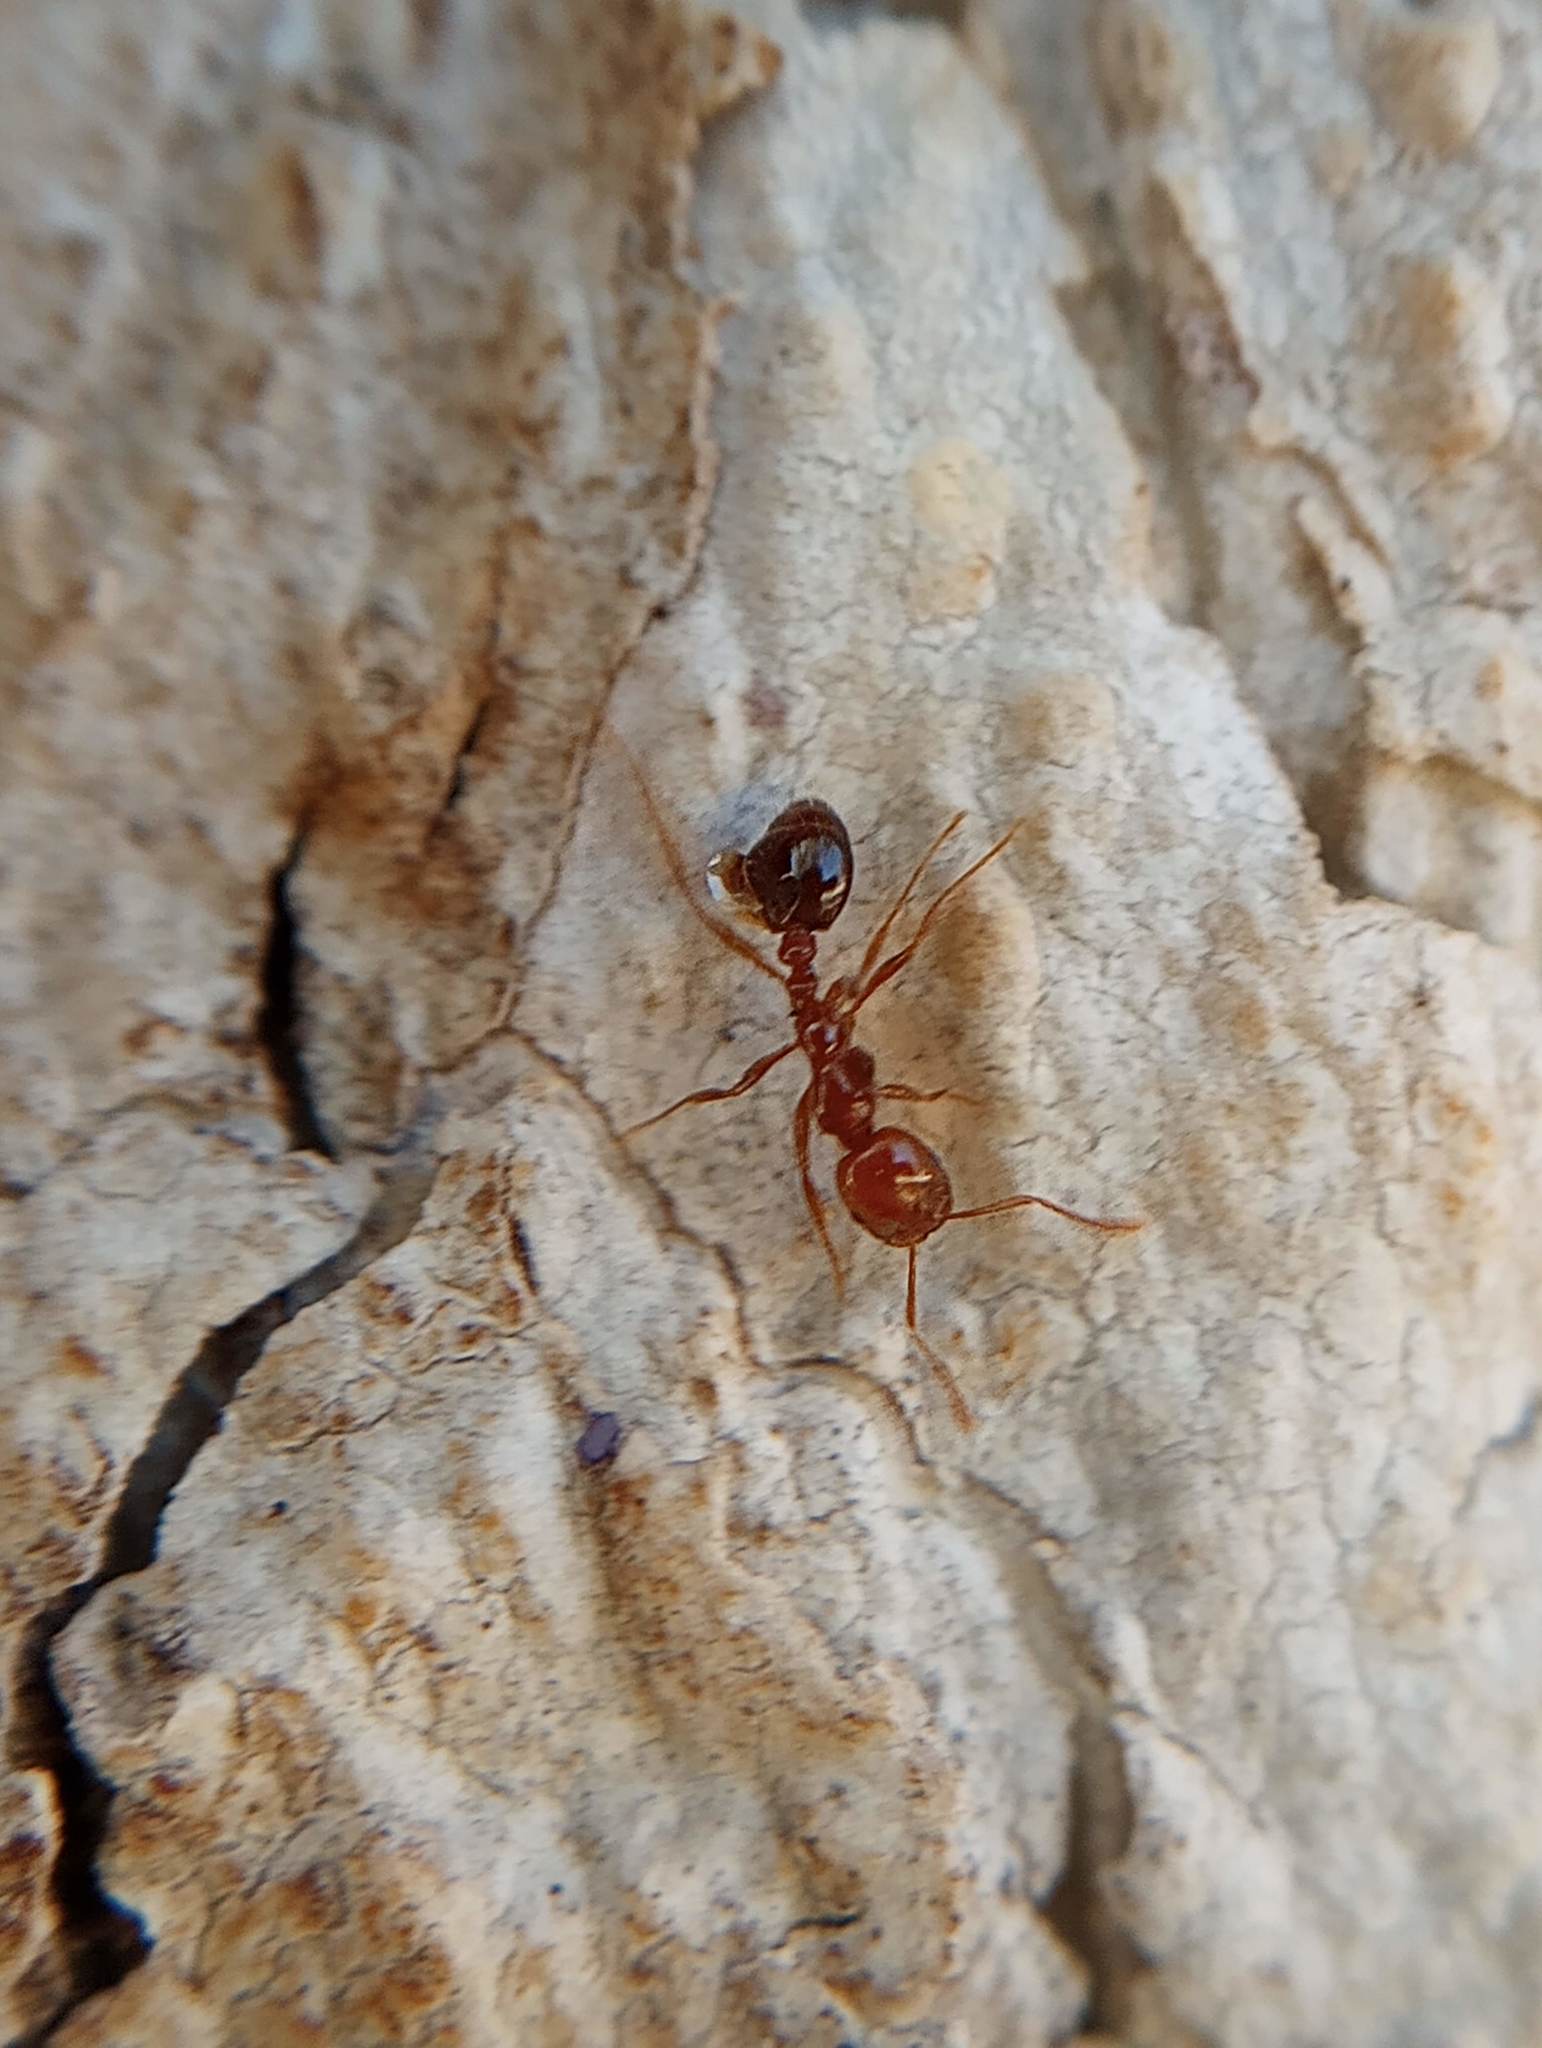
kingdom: Animalia
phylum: Arthropoda
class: Insecta
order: Hymenoptera
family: Formicidae
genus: Solenopsis
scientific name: Solenopsis xyloni
